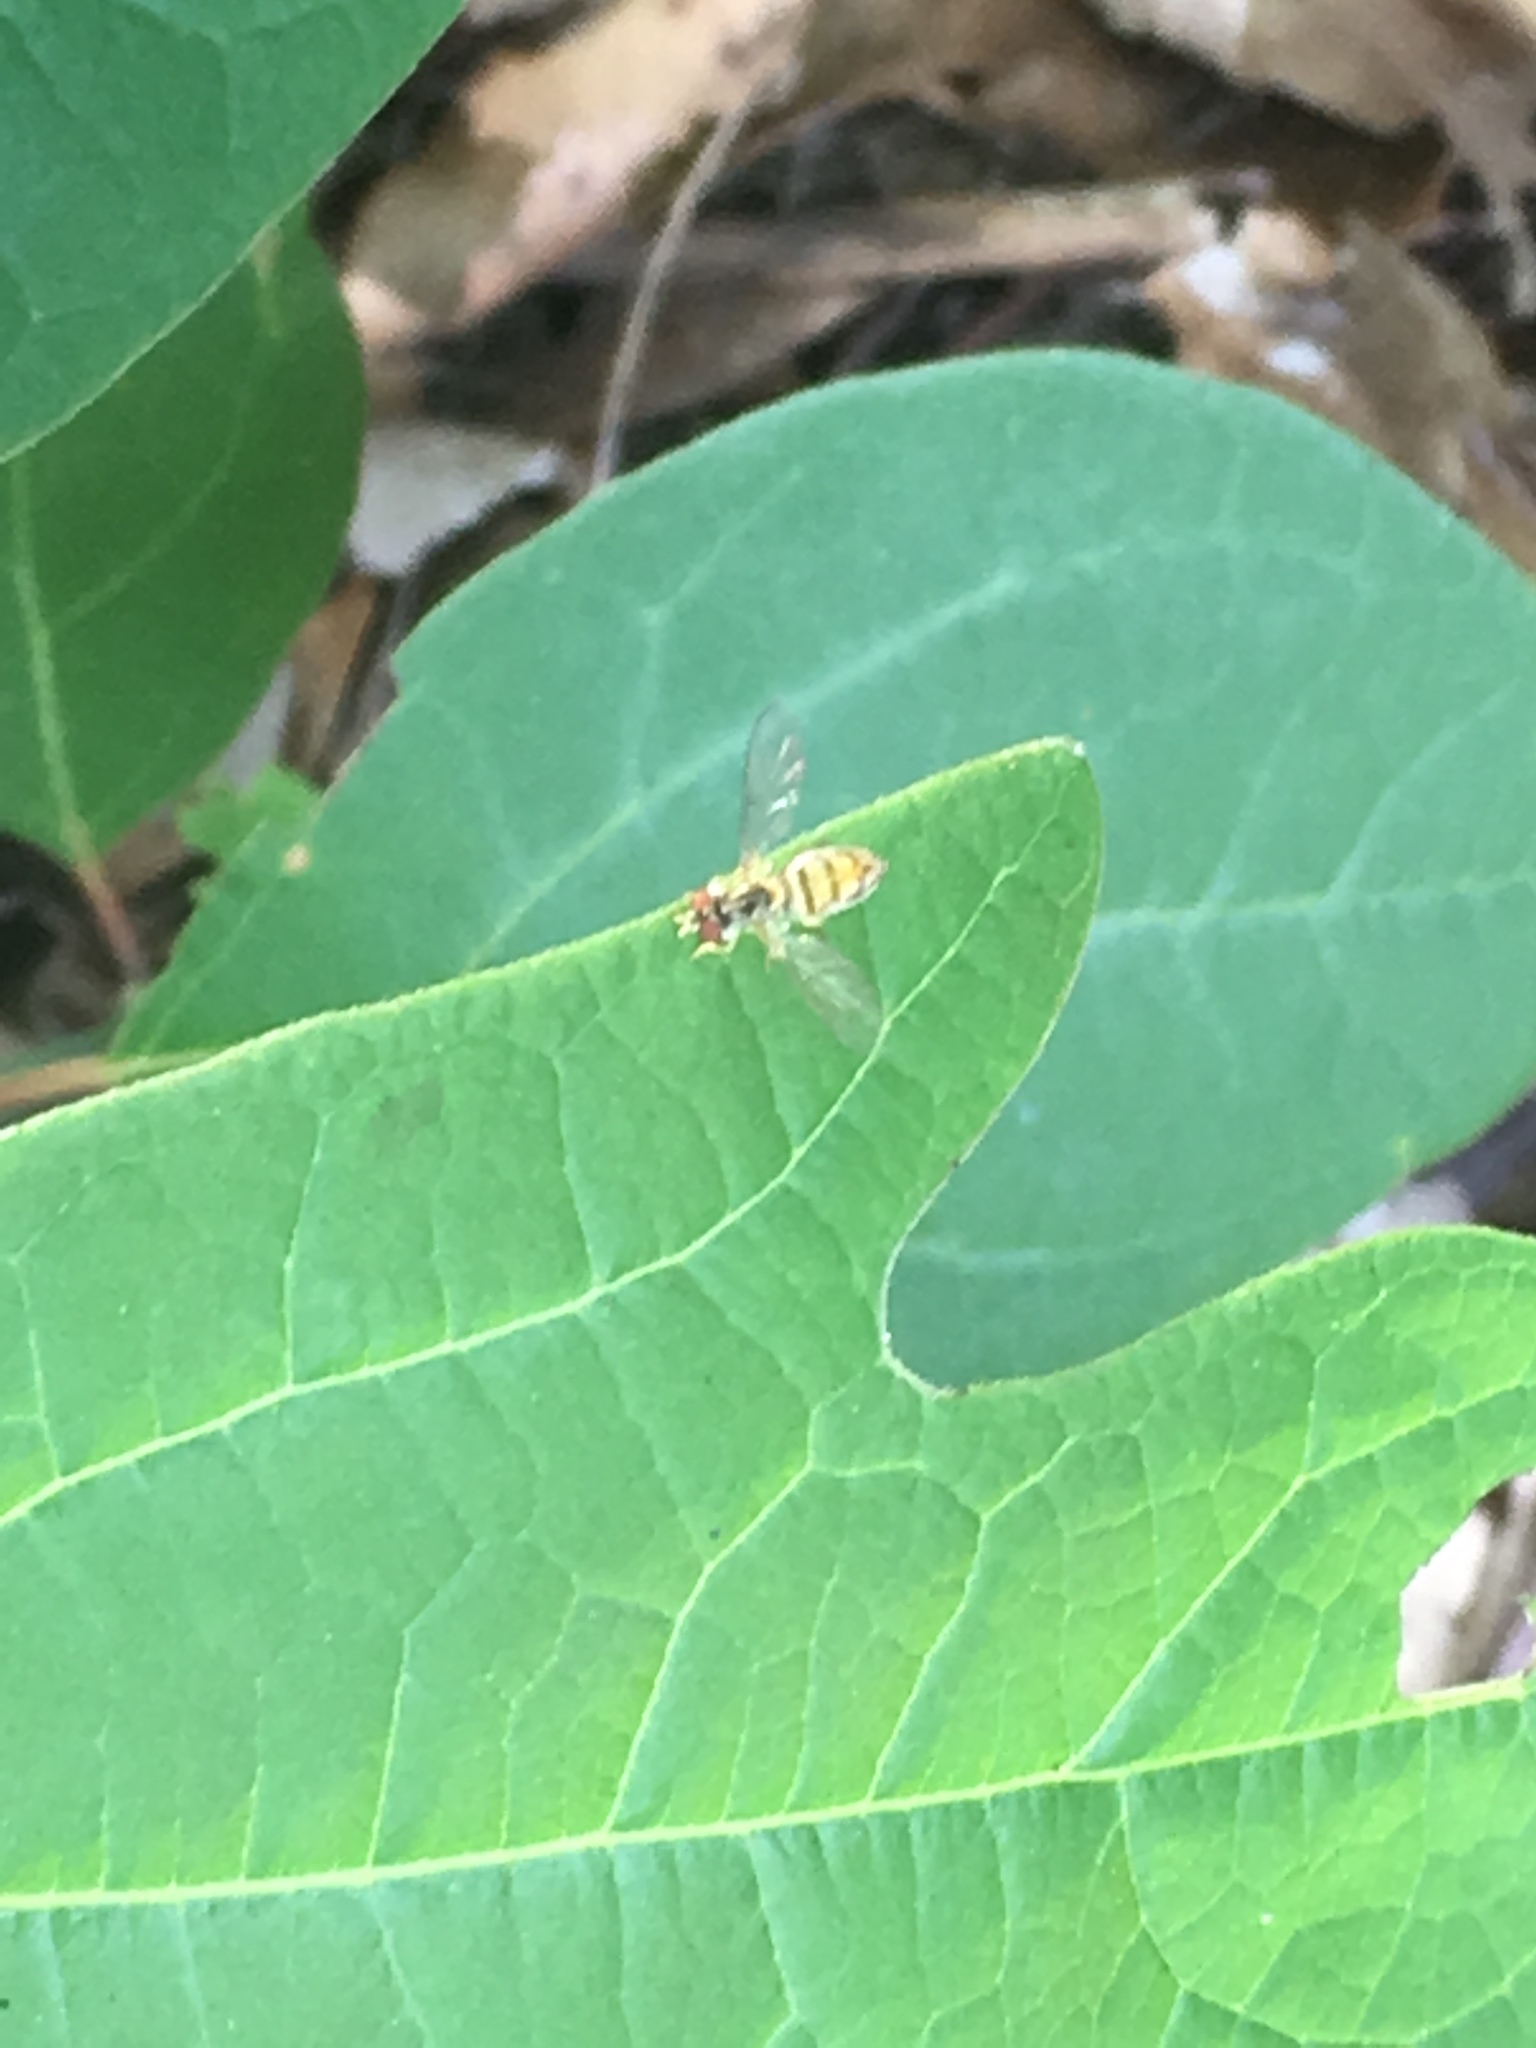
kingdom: Animalia
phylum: Arthropoda
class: Insecta
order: Diptera
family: Syrphidae
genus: Toxomerus
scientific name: Toxomerus marginatus
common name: Syrphid fly
